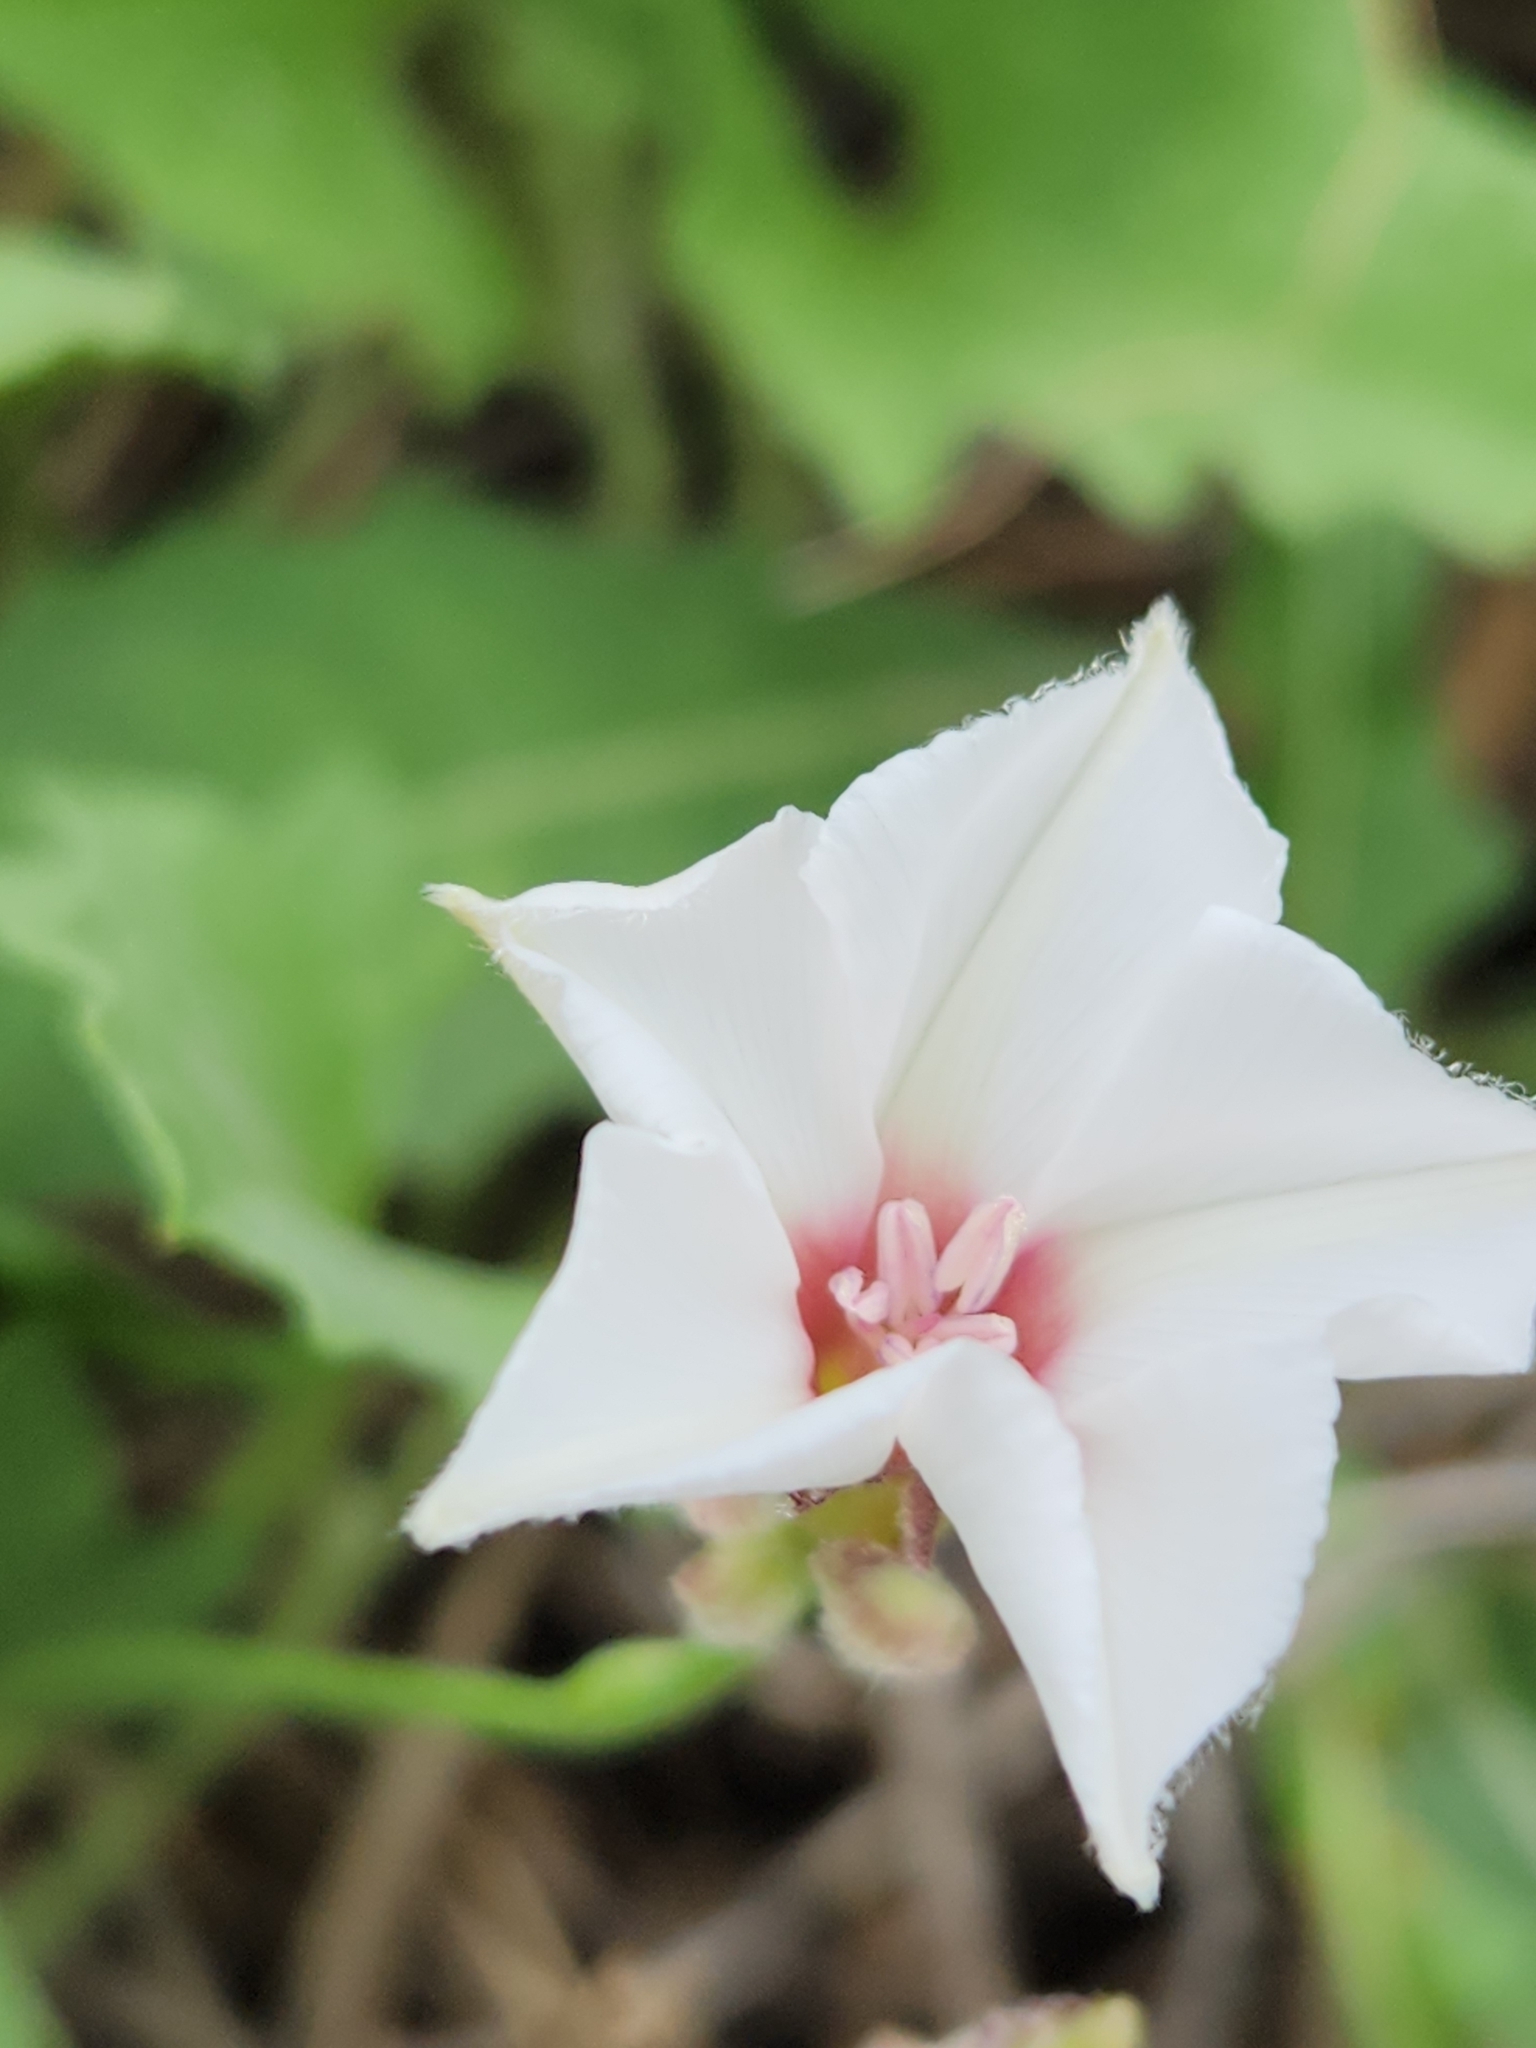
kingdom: Plantae
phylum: Tracheophyta
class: Magnoliopsida
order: Solanales
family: Convolvulaceae
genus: Convolvulus
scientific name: Convolvulus equitans
